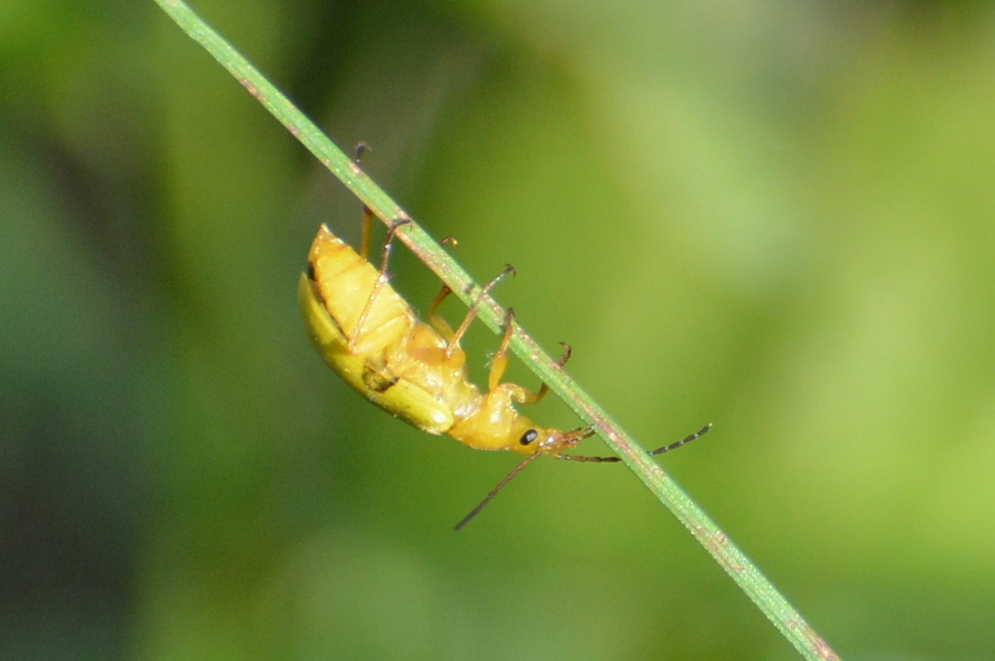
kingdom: Animalia
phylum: Arthropoda
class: Insecta
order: Coleoptera
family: Tenebrionidae
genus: Cteniopus
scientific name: Cteniopus sulphureus
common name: Sulphur beetle
